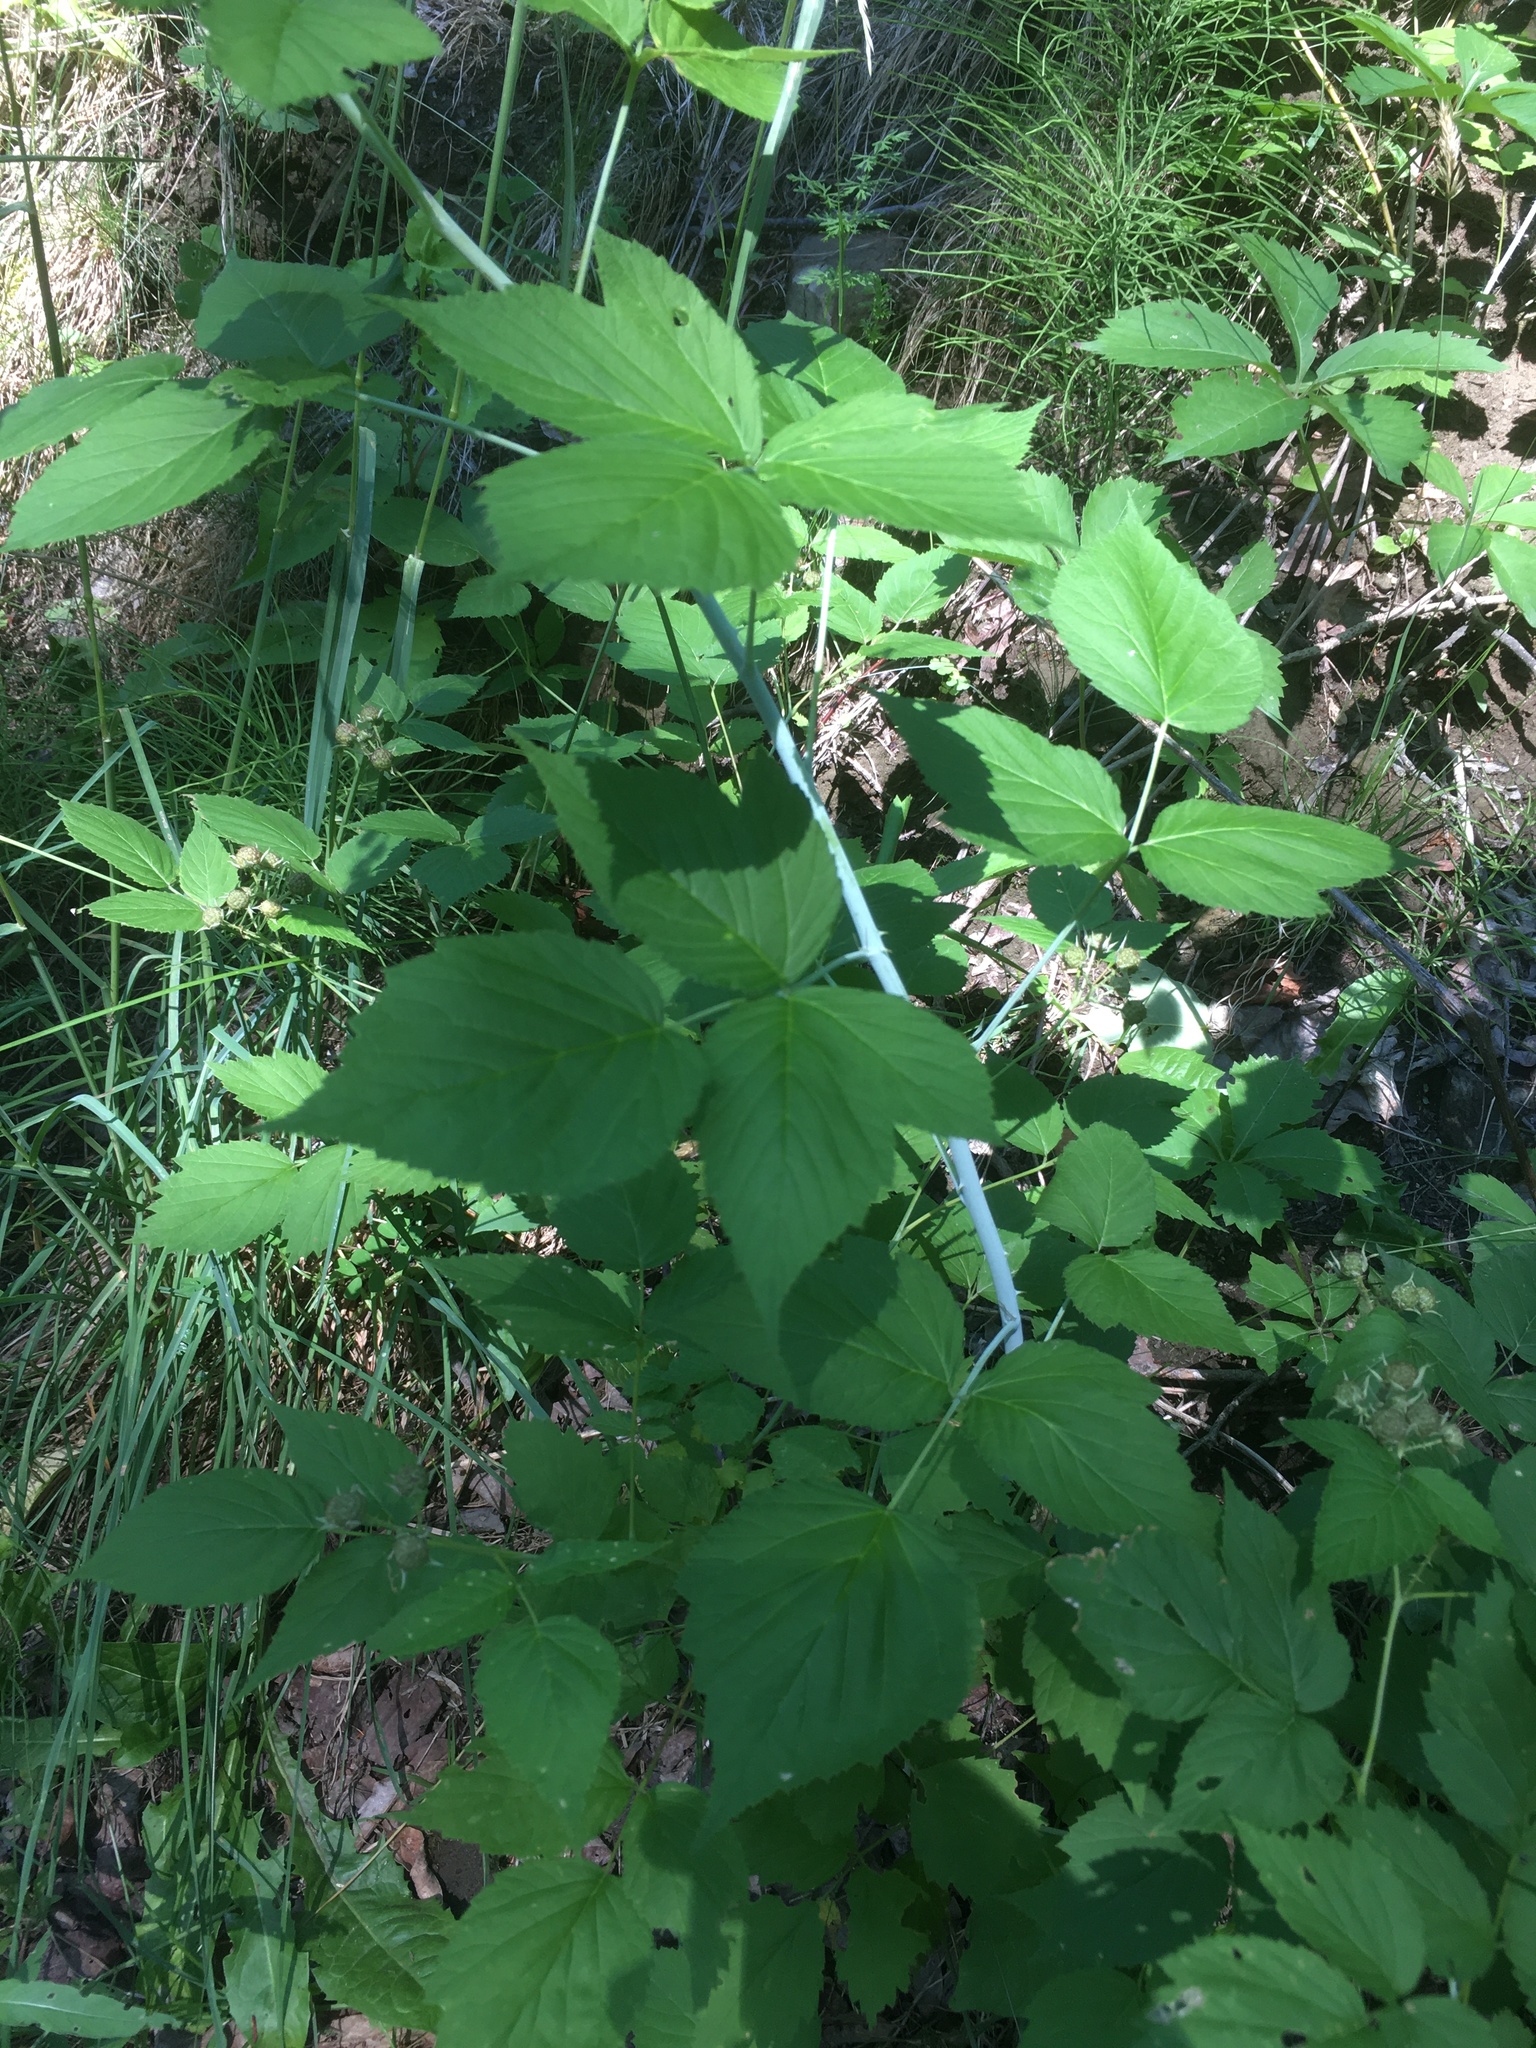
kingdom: Plantae
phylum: Tracheophyta
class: Magnoliopsida
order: Rosales
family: Rosaceae
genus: Rubus
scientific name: Rubus occidentalis
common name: Black raspberry
